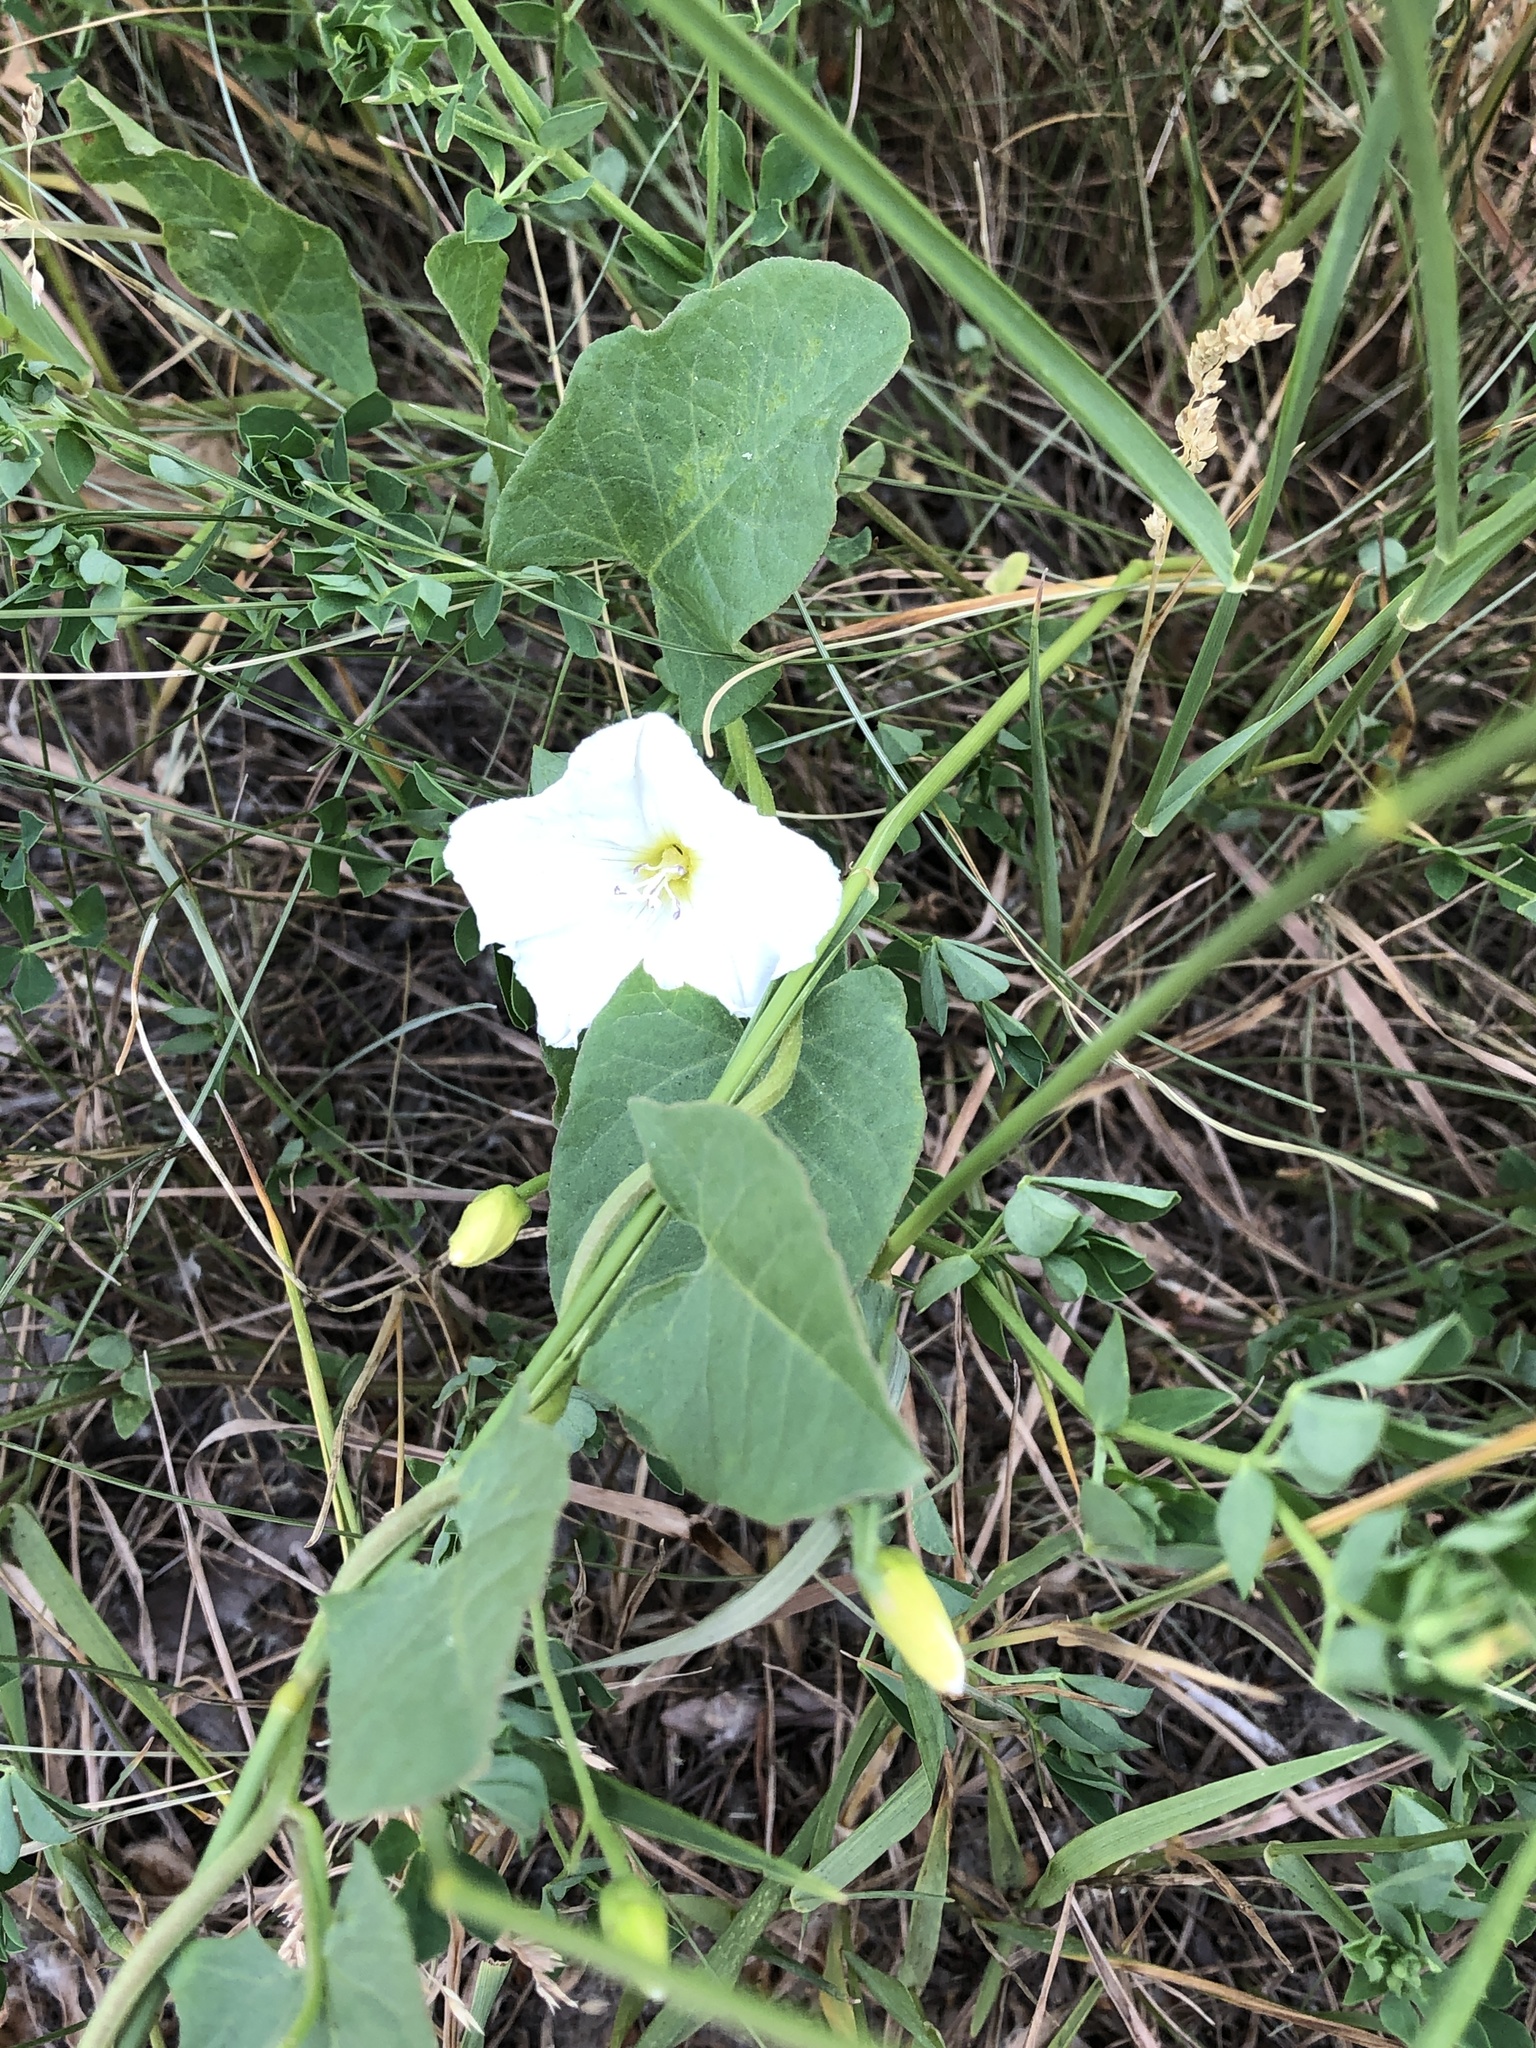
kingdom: Plantae
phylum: Tracheophyta
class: Magnoliopsida
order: Solanales
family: Convolvulaceae
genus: Convolvulus
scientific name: Convolvulus arvensis
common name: Field bindweed
